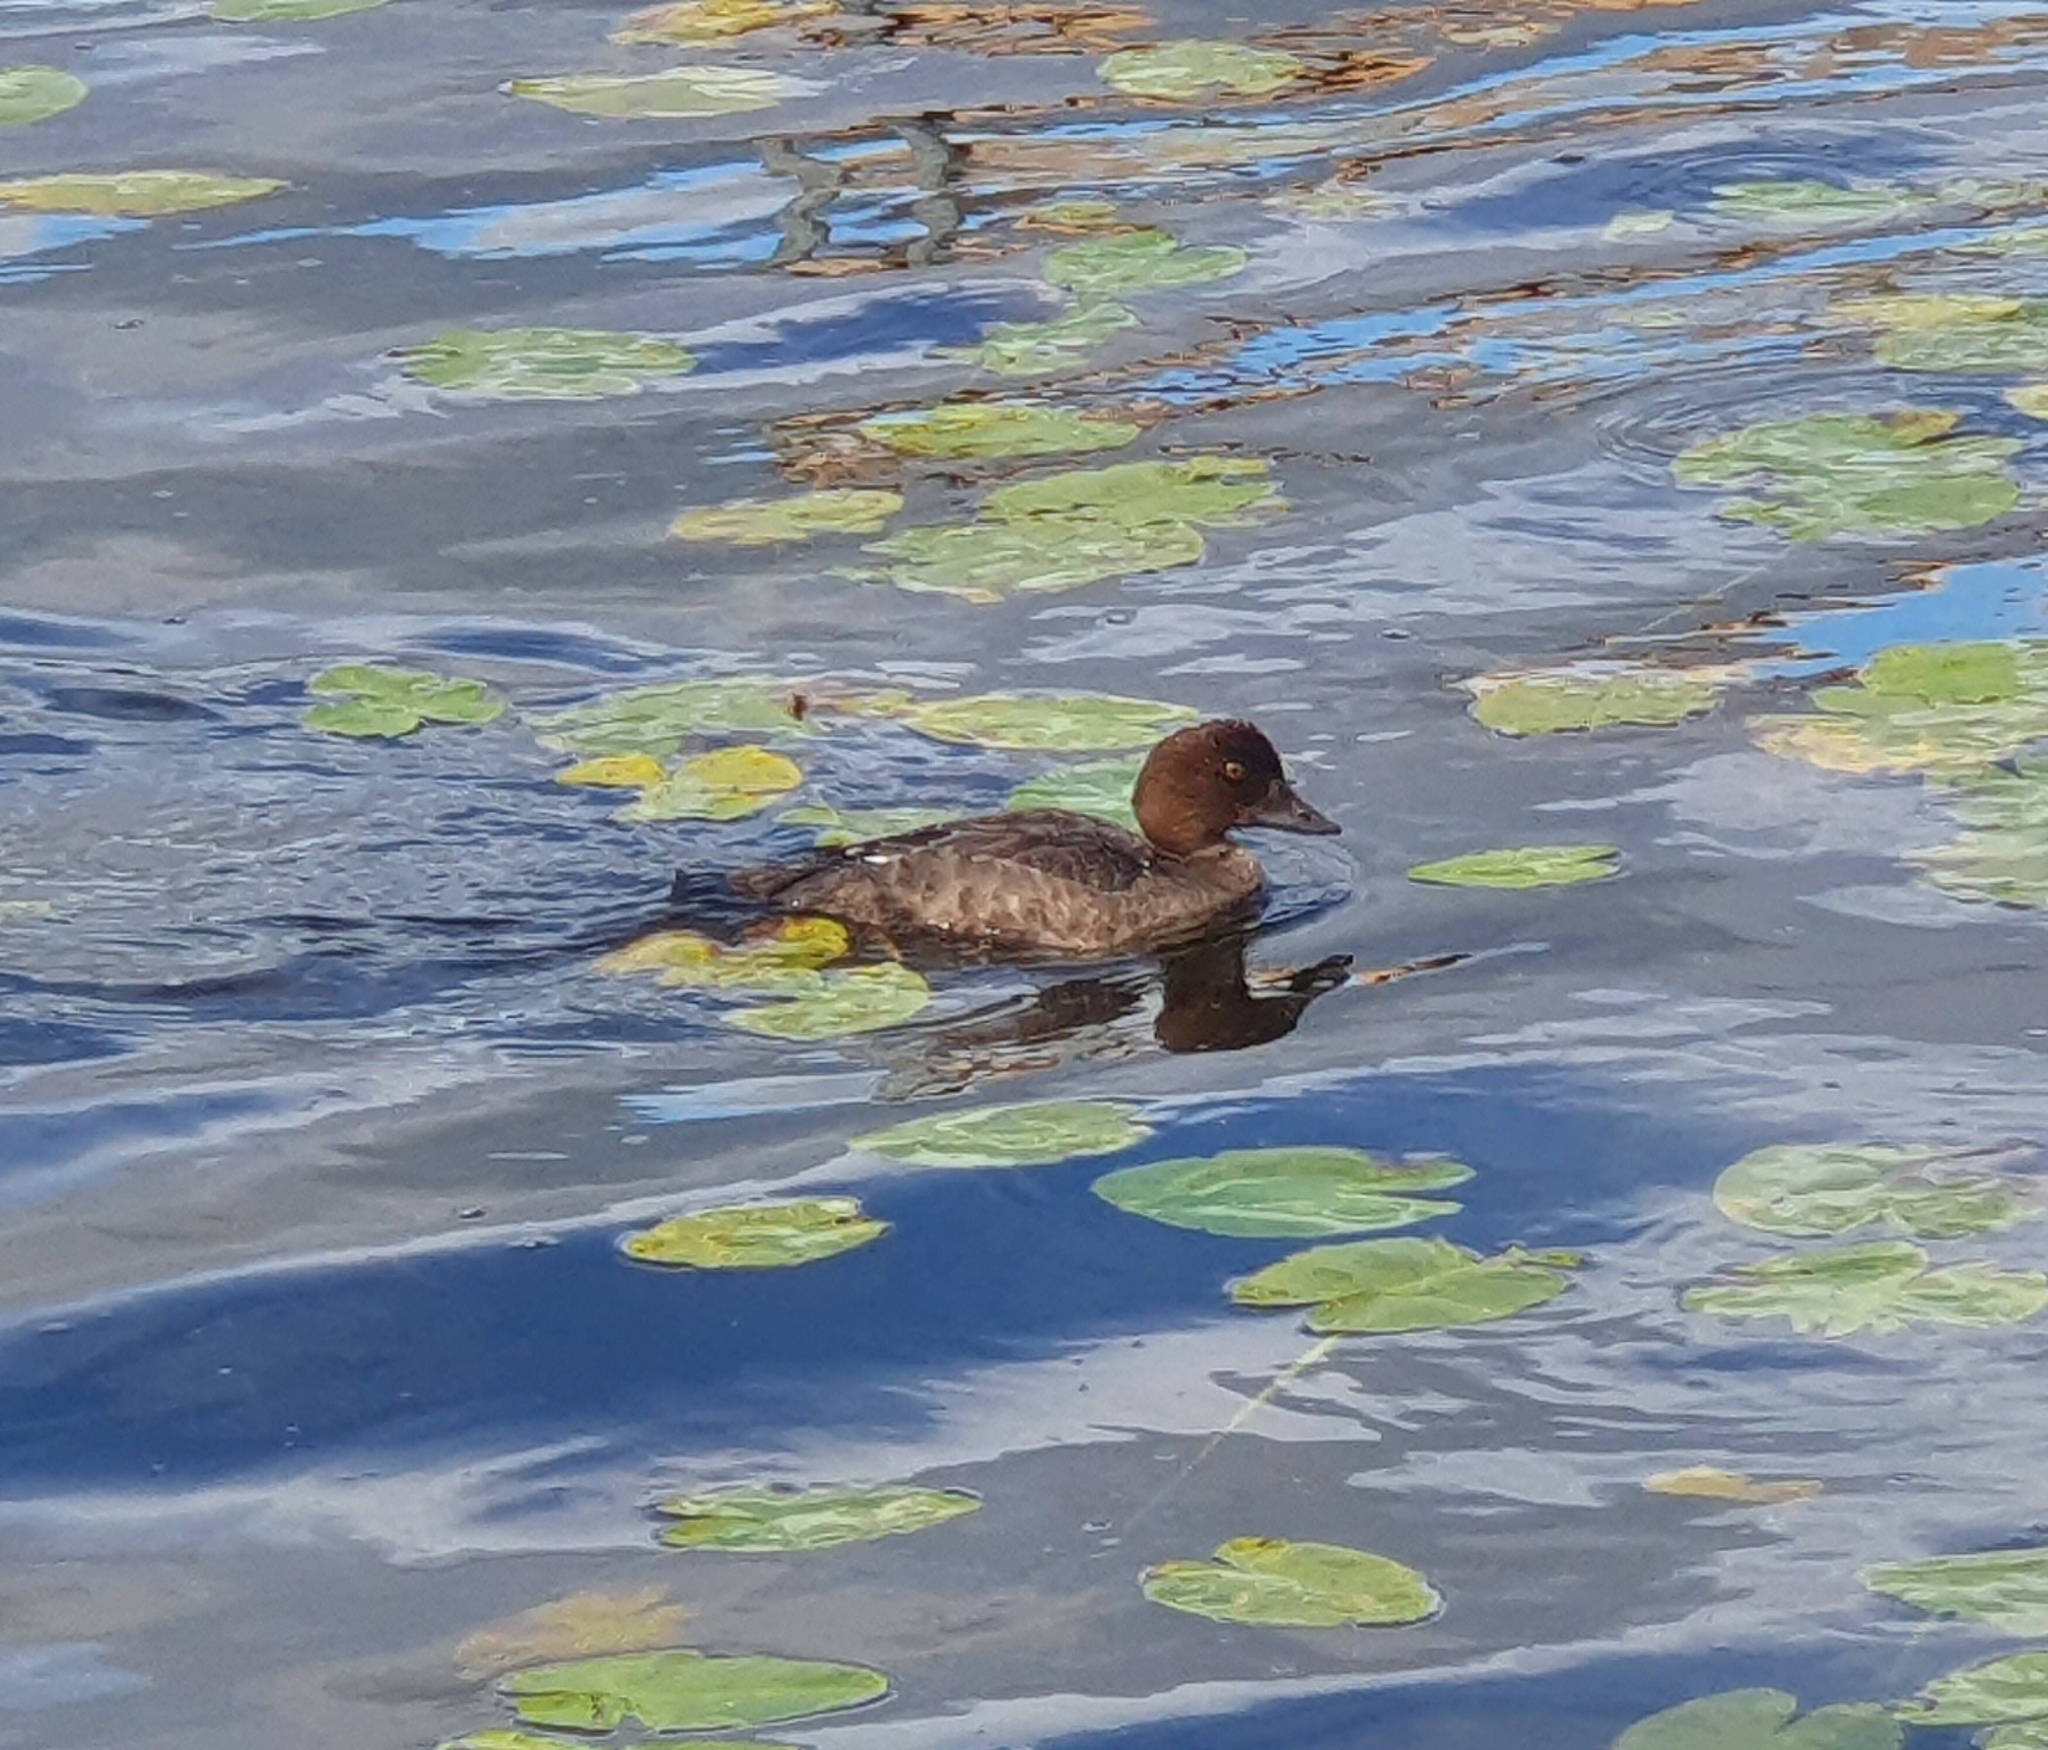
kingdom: Animalia
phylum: Chordata
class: Aves
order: Anseriformes
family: Anatidae
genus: Bucephala
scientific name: Bucephala clangula
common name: Common goldeneye
